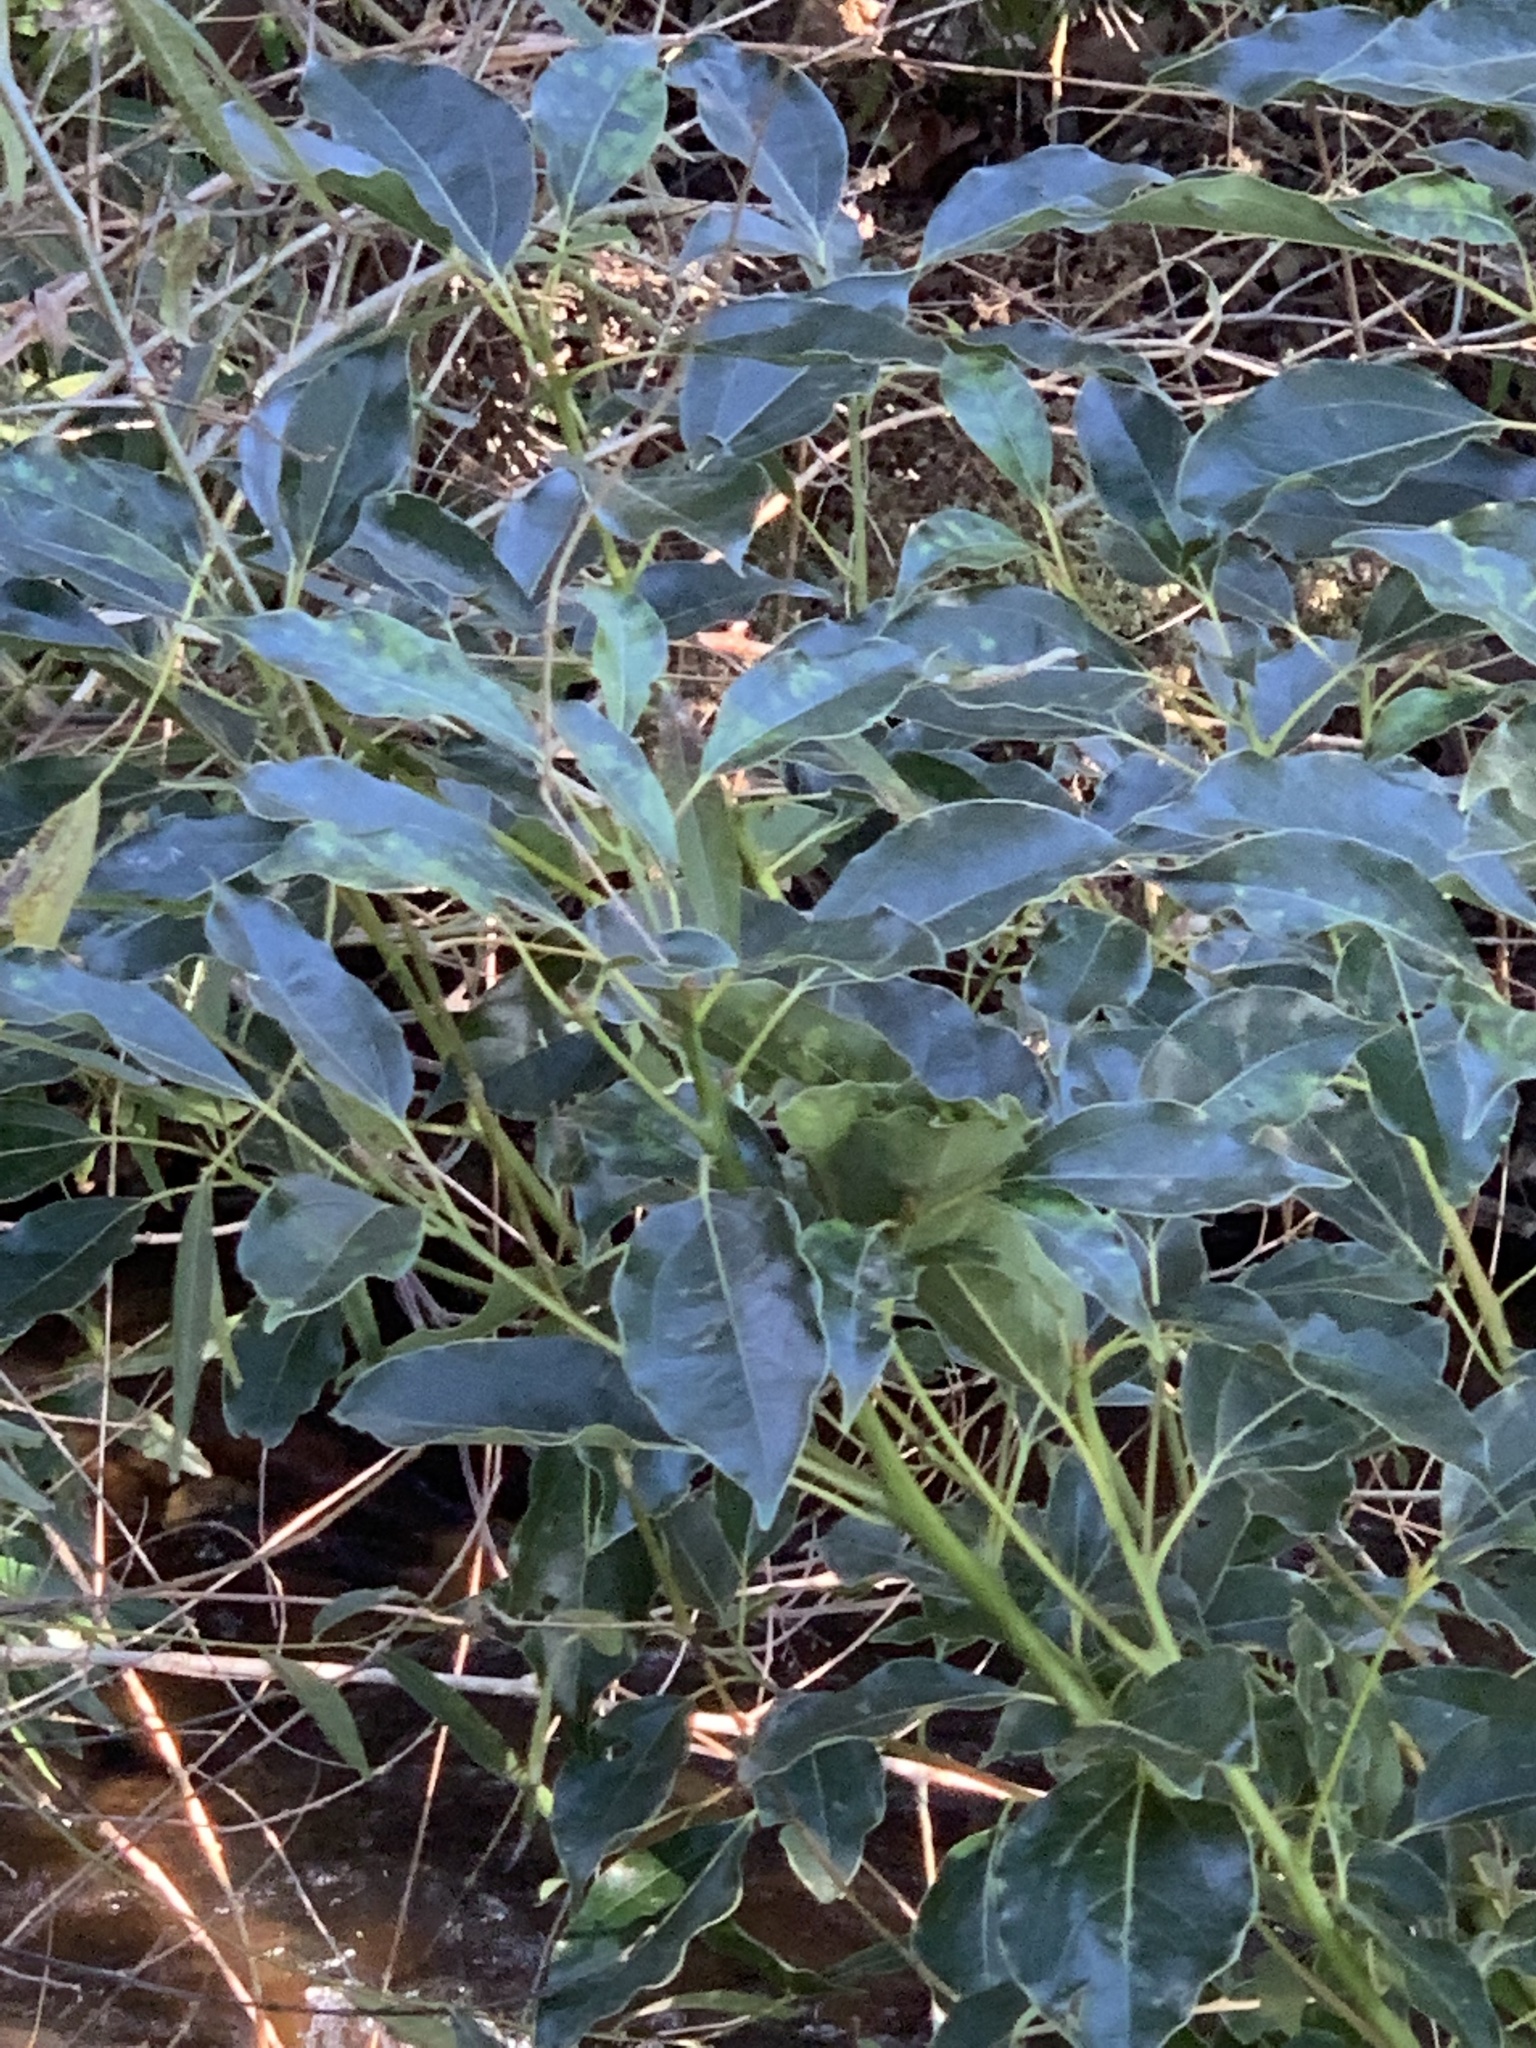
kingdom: Plantae
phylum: Tracheophyta
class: Magnoliopsida
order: Laurales
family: Lauraceae
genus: Cinnamomum
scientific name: Cinnamomum camphora
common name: Camphortree
